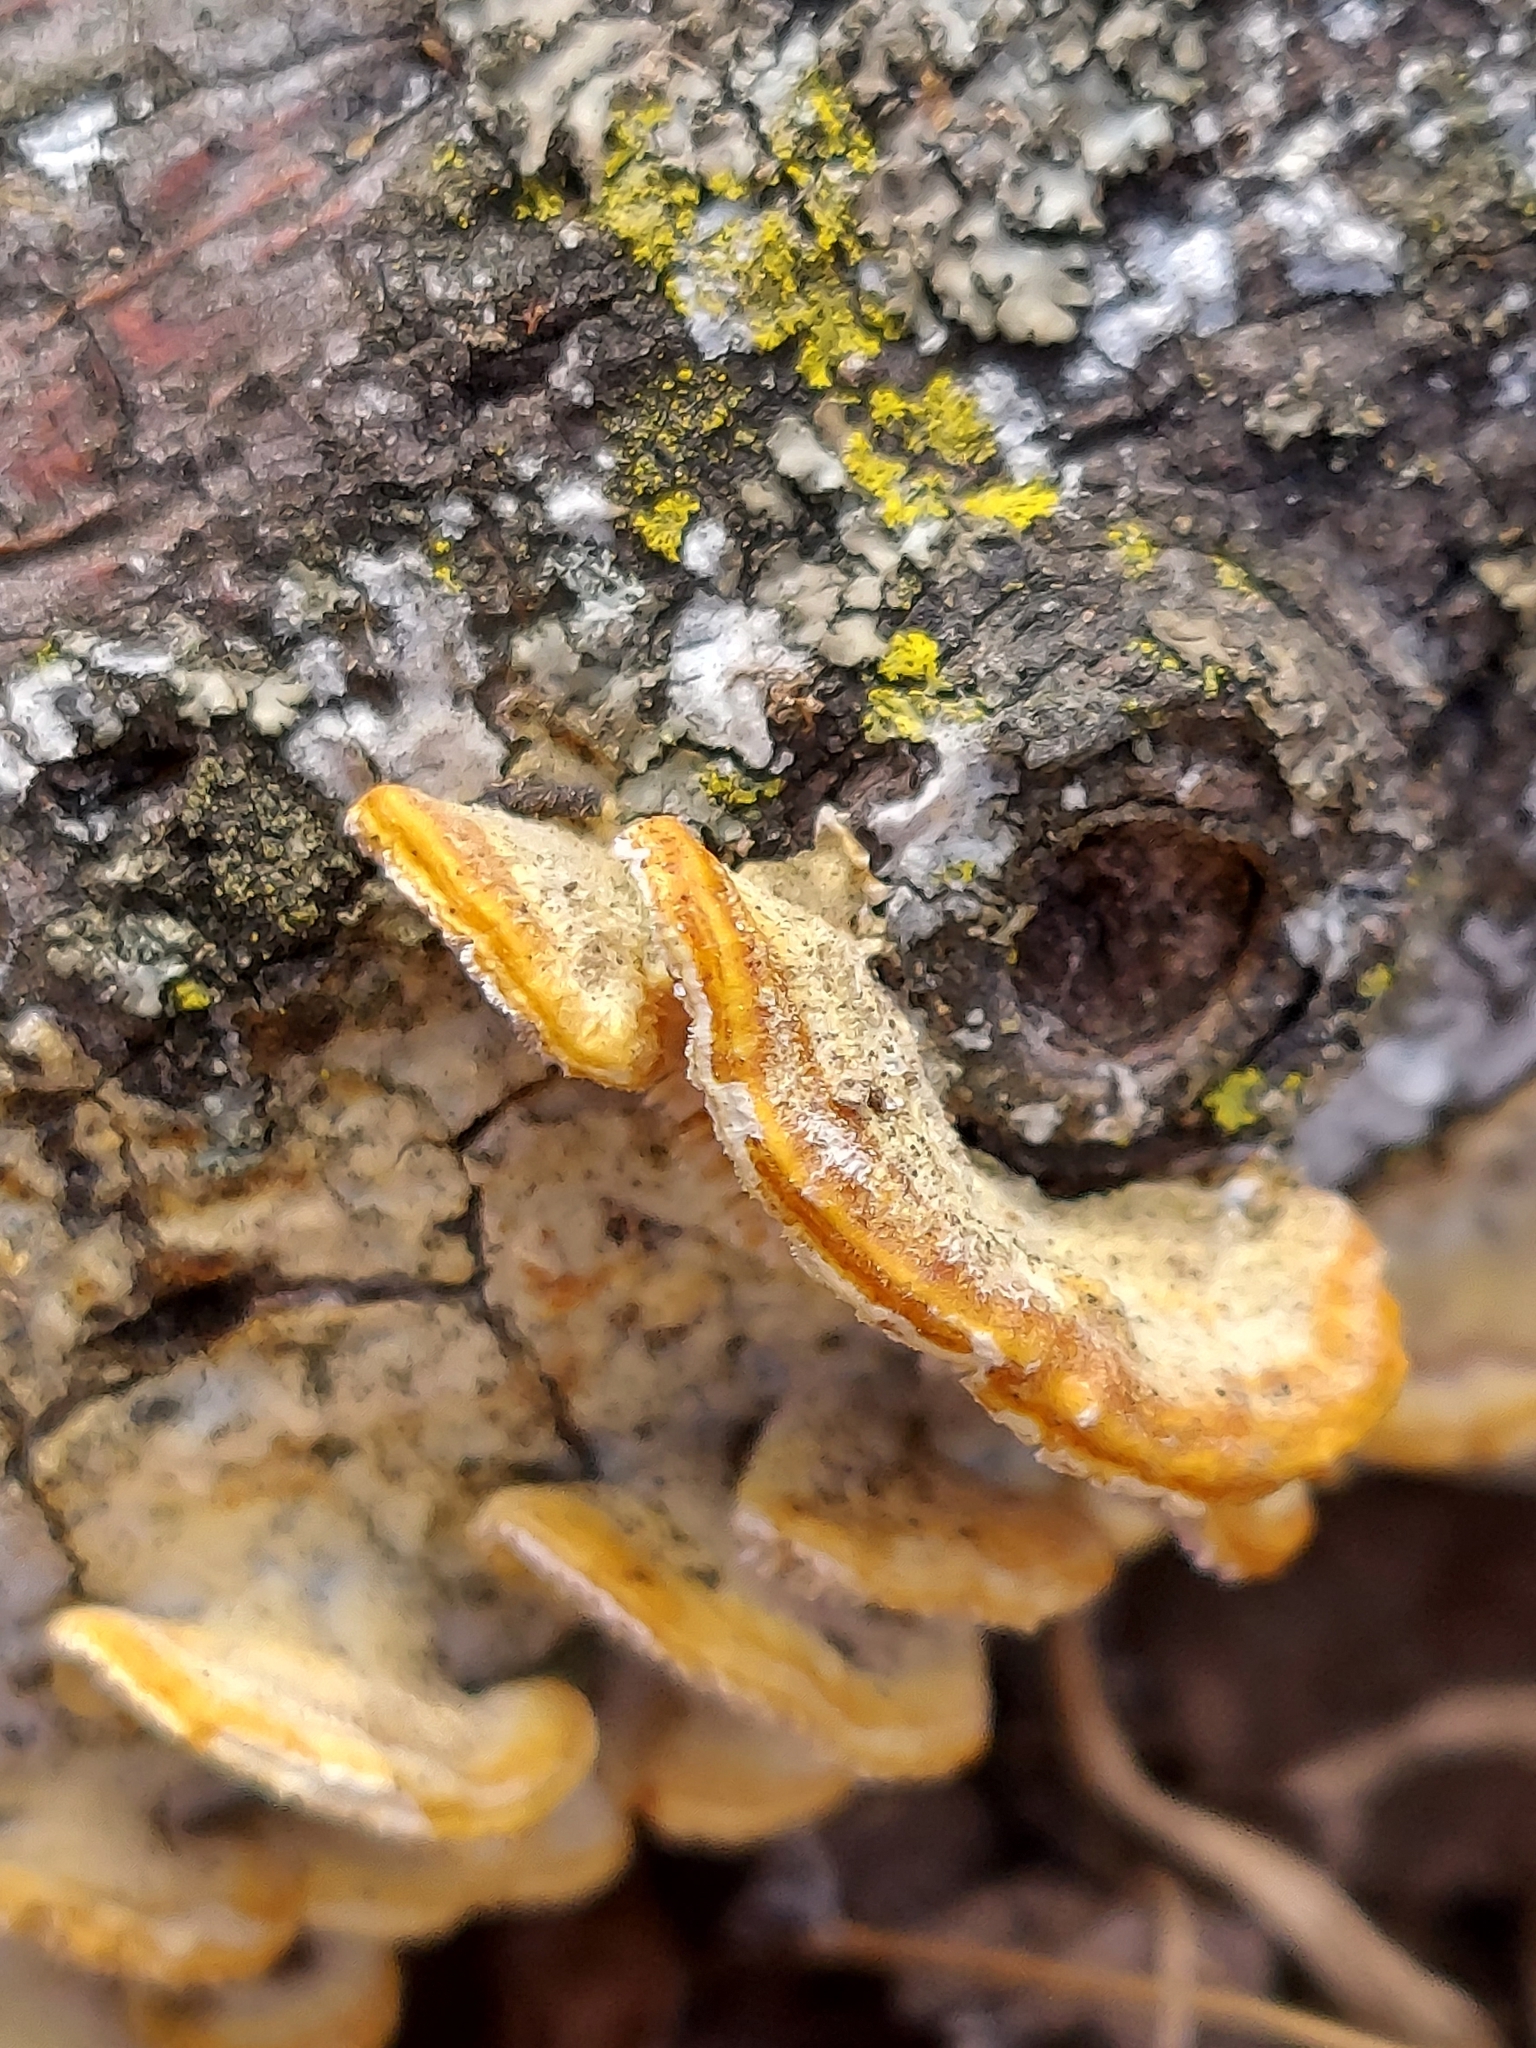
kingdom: Fungi
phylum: Basidiomycota
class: Agaricomycetes
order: Polyporales
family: Irpicaceae
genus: Irpex
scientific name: Irpex lacteus
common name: Milk-white toothed polypore
